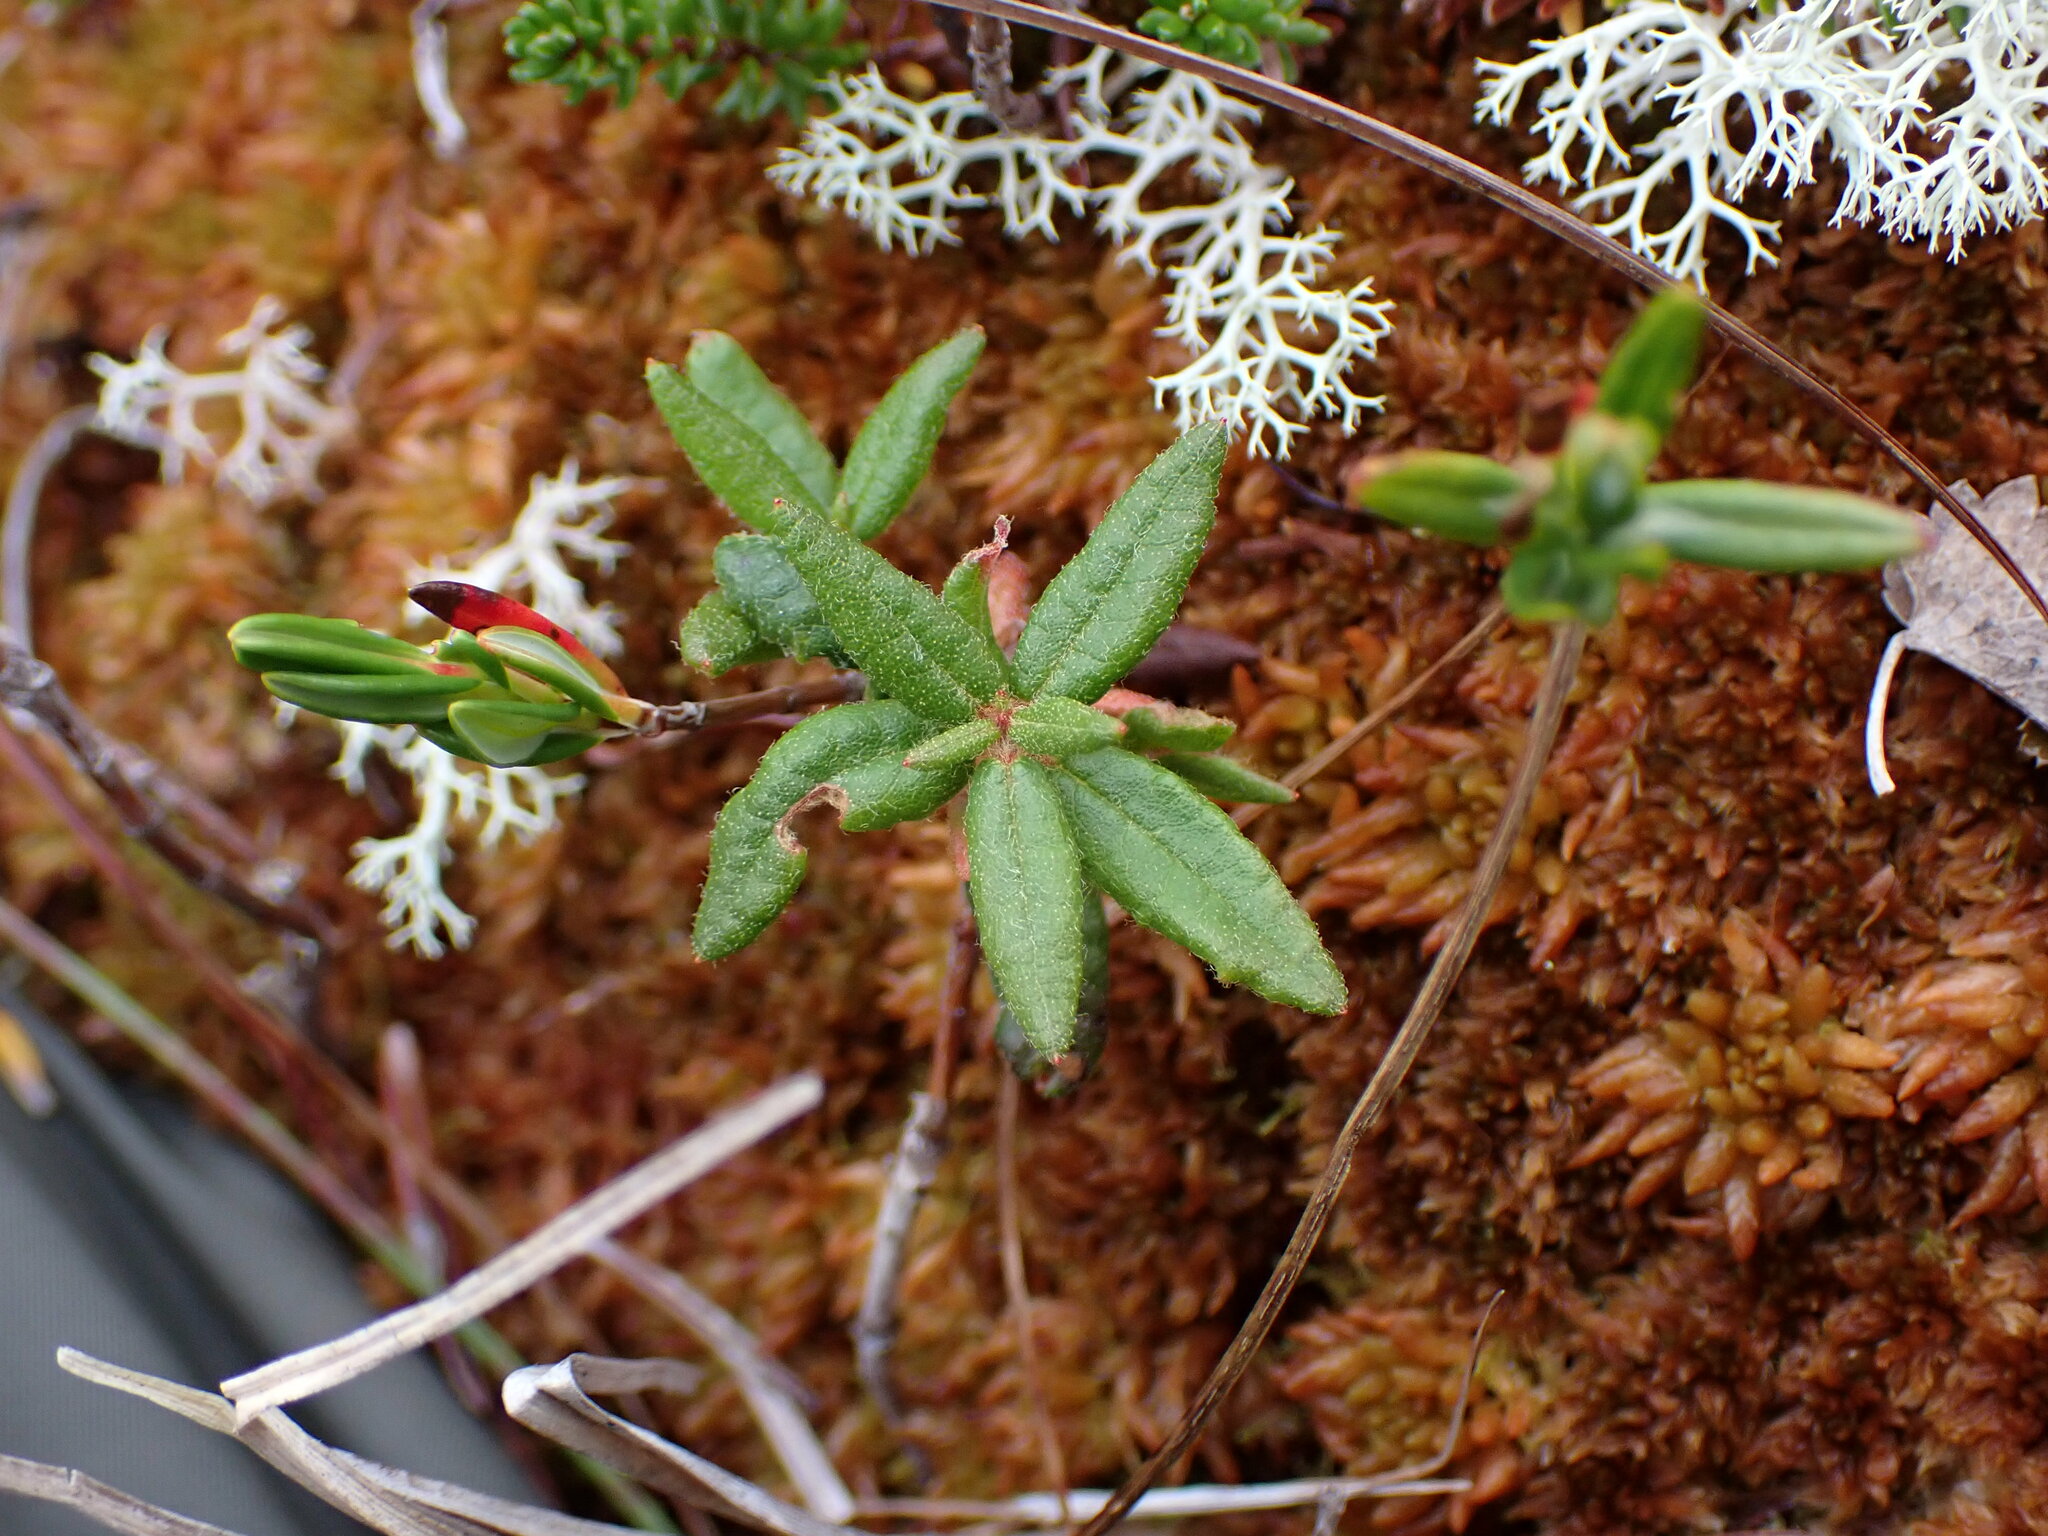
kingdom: Plantae
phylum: Tracheophyta
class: Magnoliopsida
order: Ericales
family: Ericaceae
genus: Rhododendron
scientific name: Rhododendron groenlandicum
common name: Bog labrador tea
